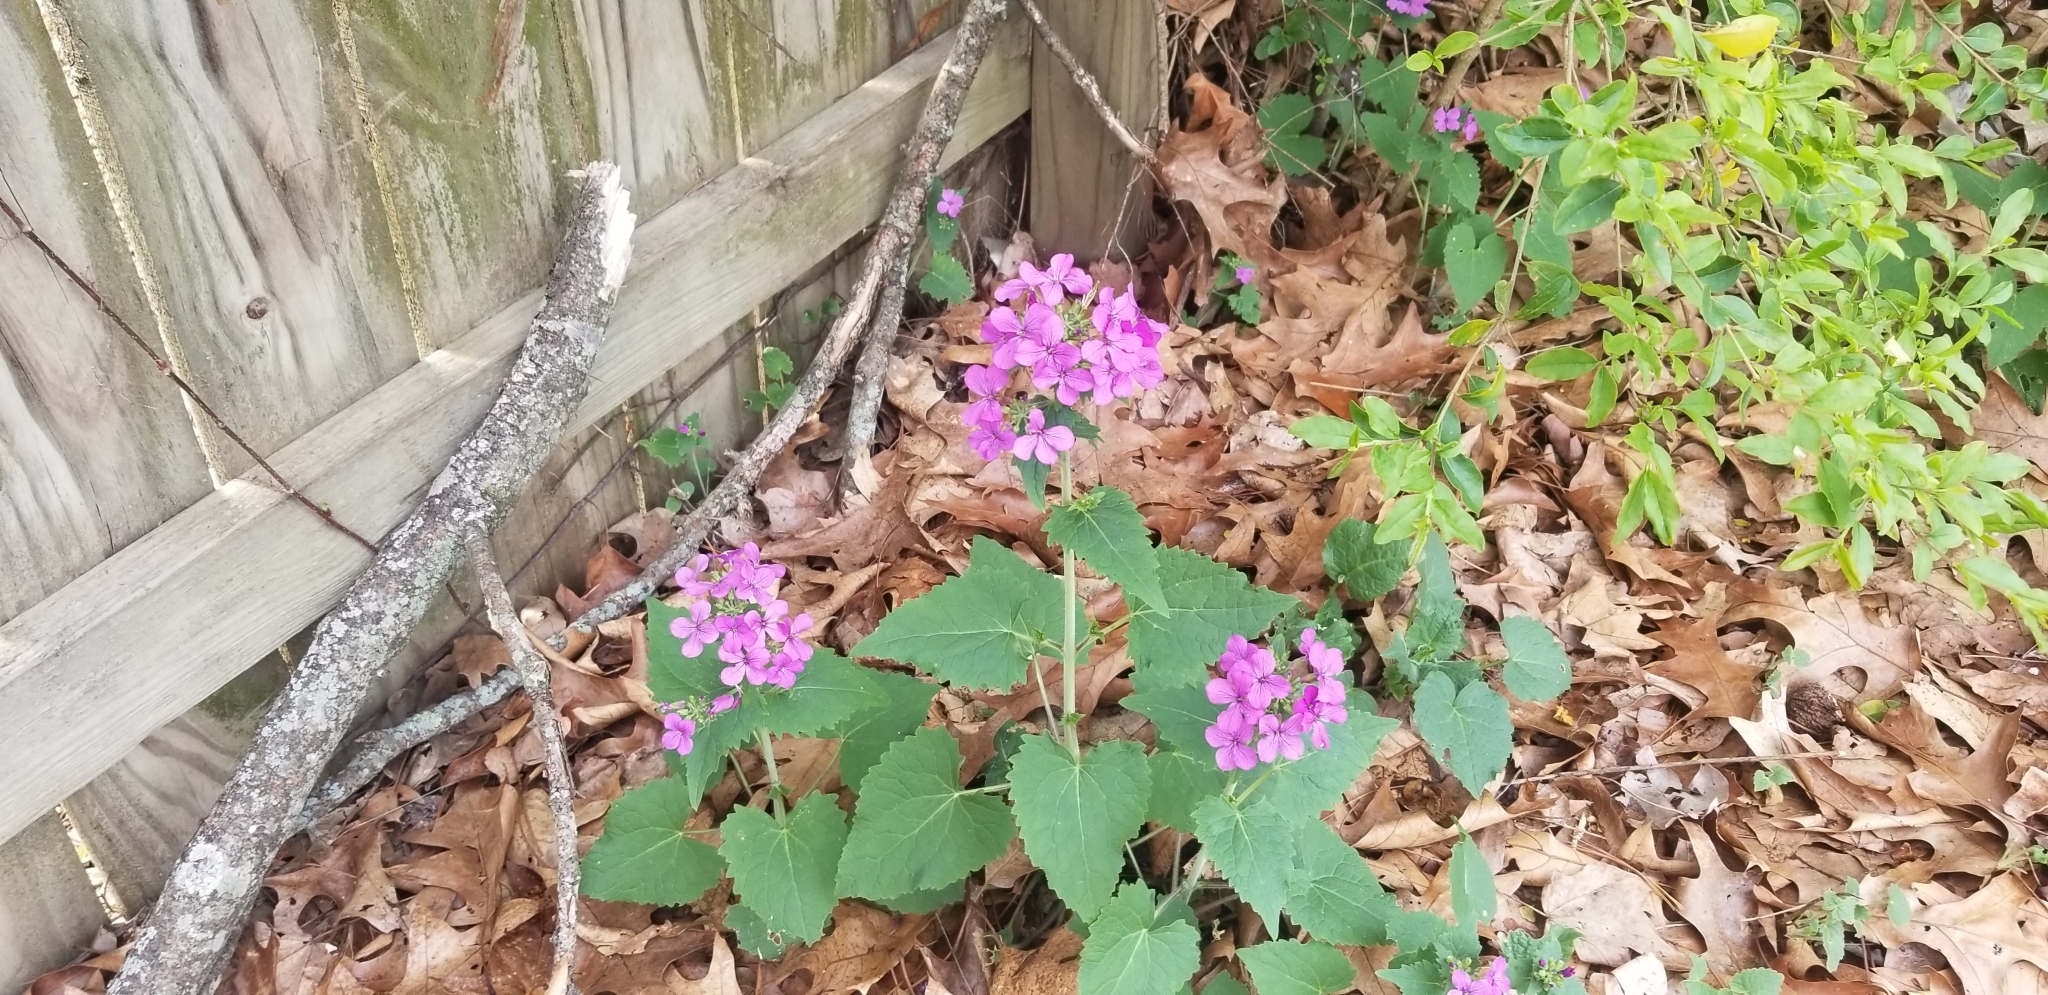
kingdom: Plantae
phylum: Tracheophyta
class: Magnoliopsida
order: Brassicales
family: Brassicaceae
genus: Lunaria
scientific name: Lunaria annua
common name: Honesty
